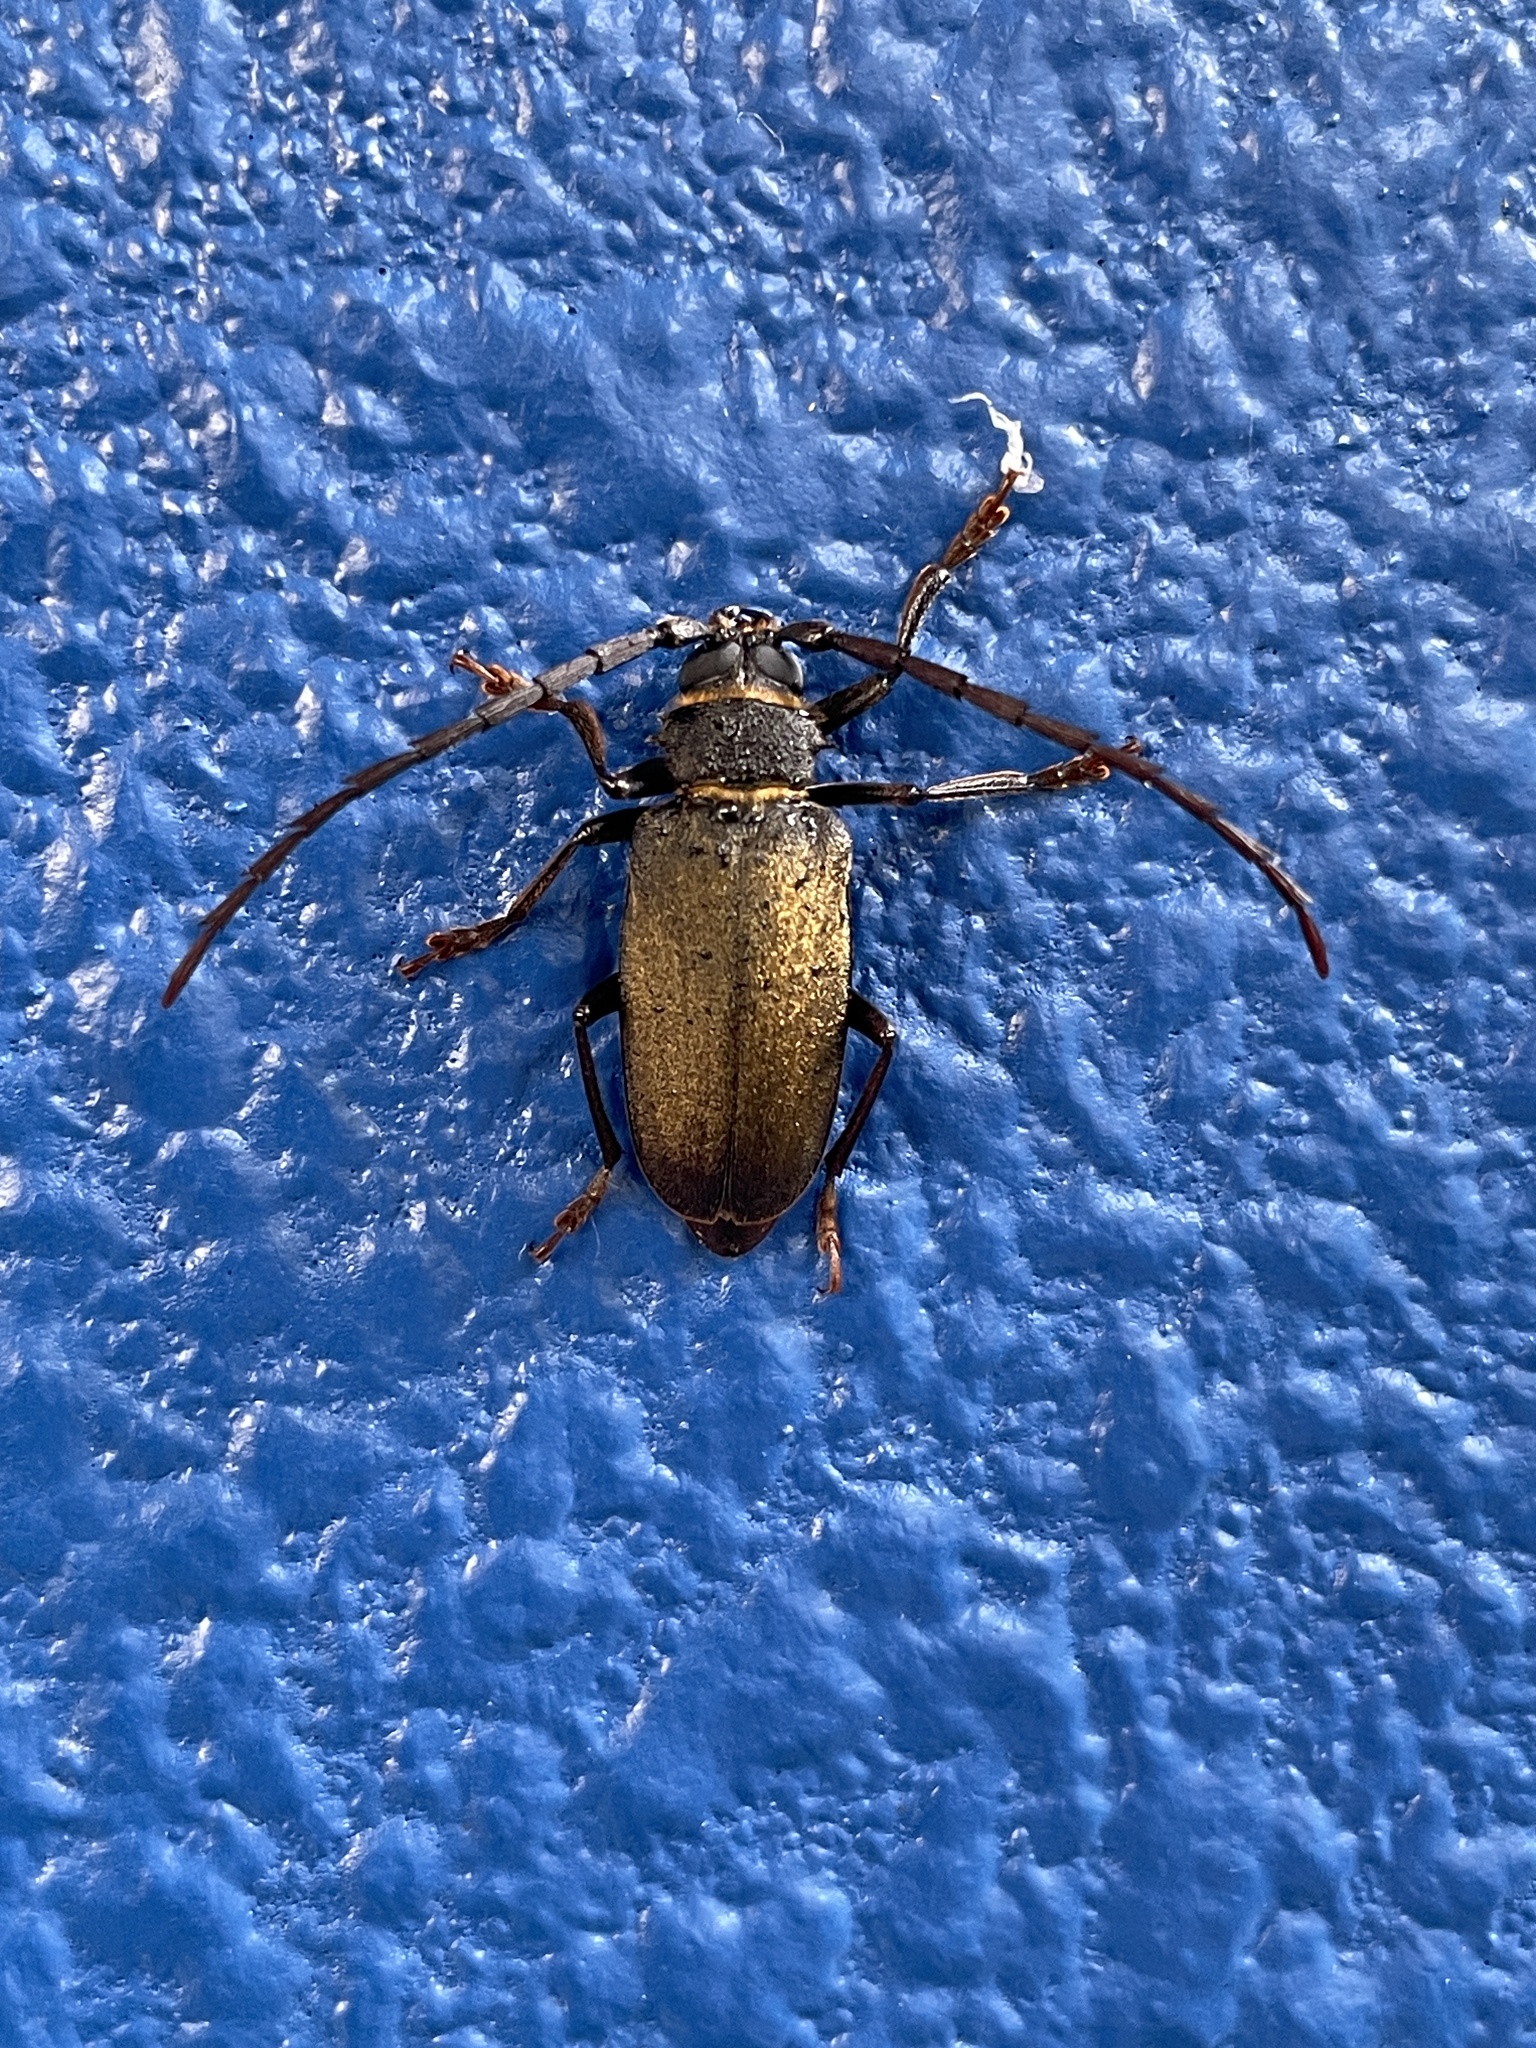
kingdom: Animalia
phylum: Arthropoda
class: Insecta
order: Coleoptera
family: Cerambycidae
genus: Priotyrannus
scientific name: Priotyrannus closteroides
